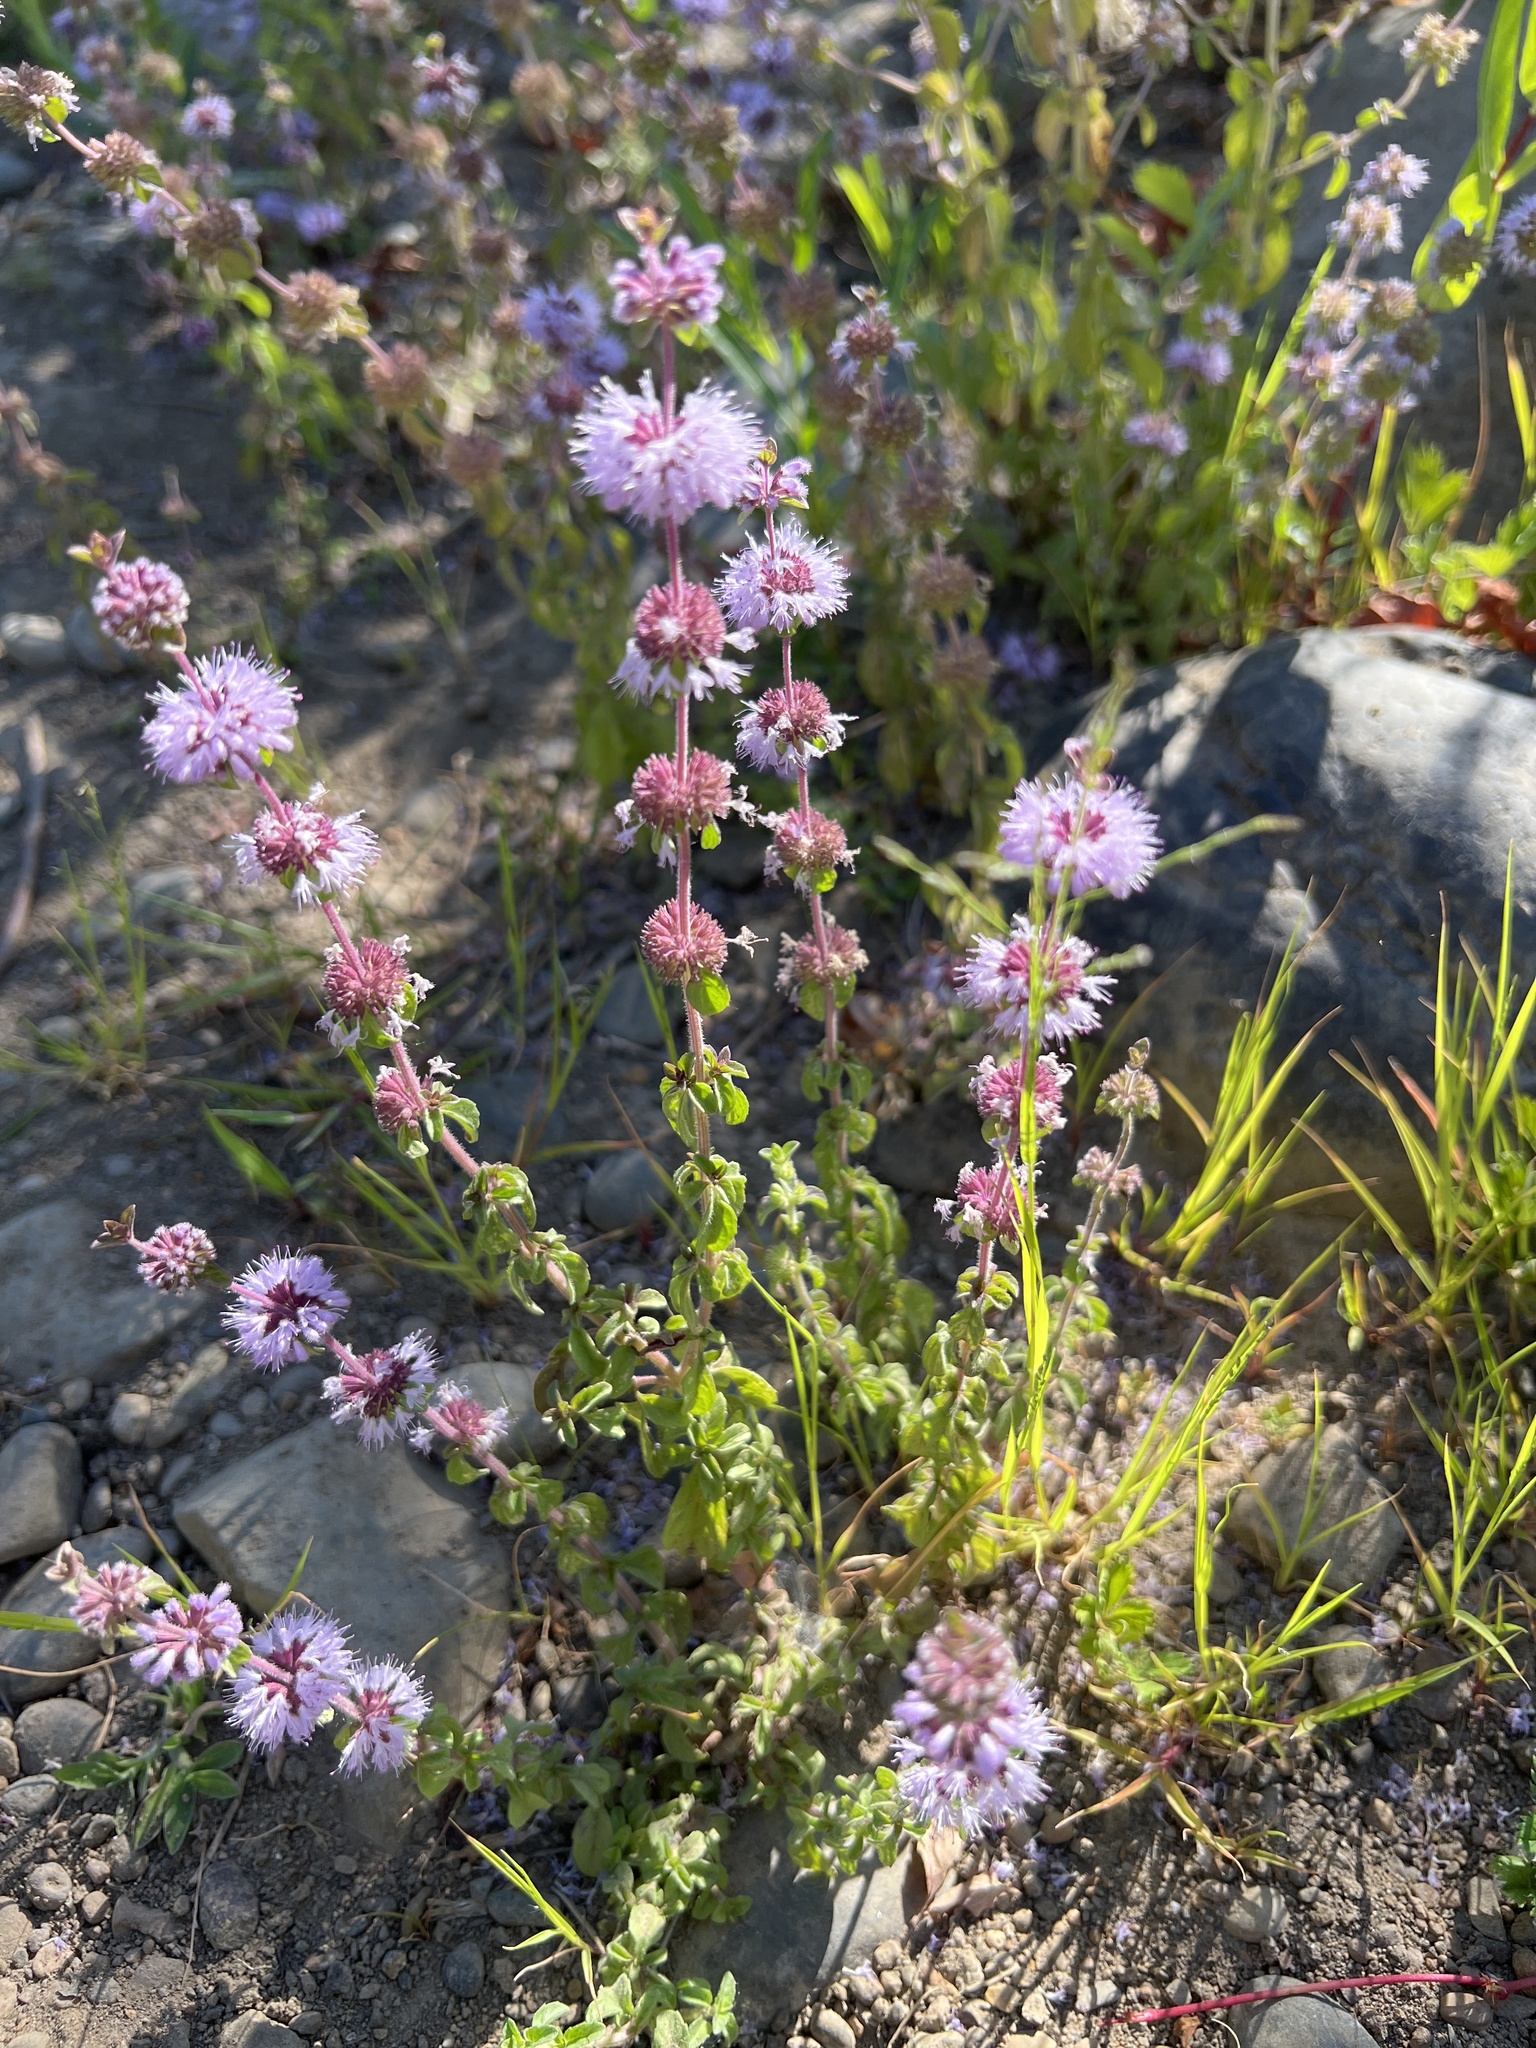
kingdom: Plantae
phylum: Tracheophyta
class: Magnoliopsida
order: Lamiales
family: Lamiaceae
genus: Mentha
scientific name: Mentha pulegium
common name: Pennyroyal
